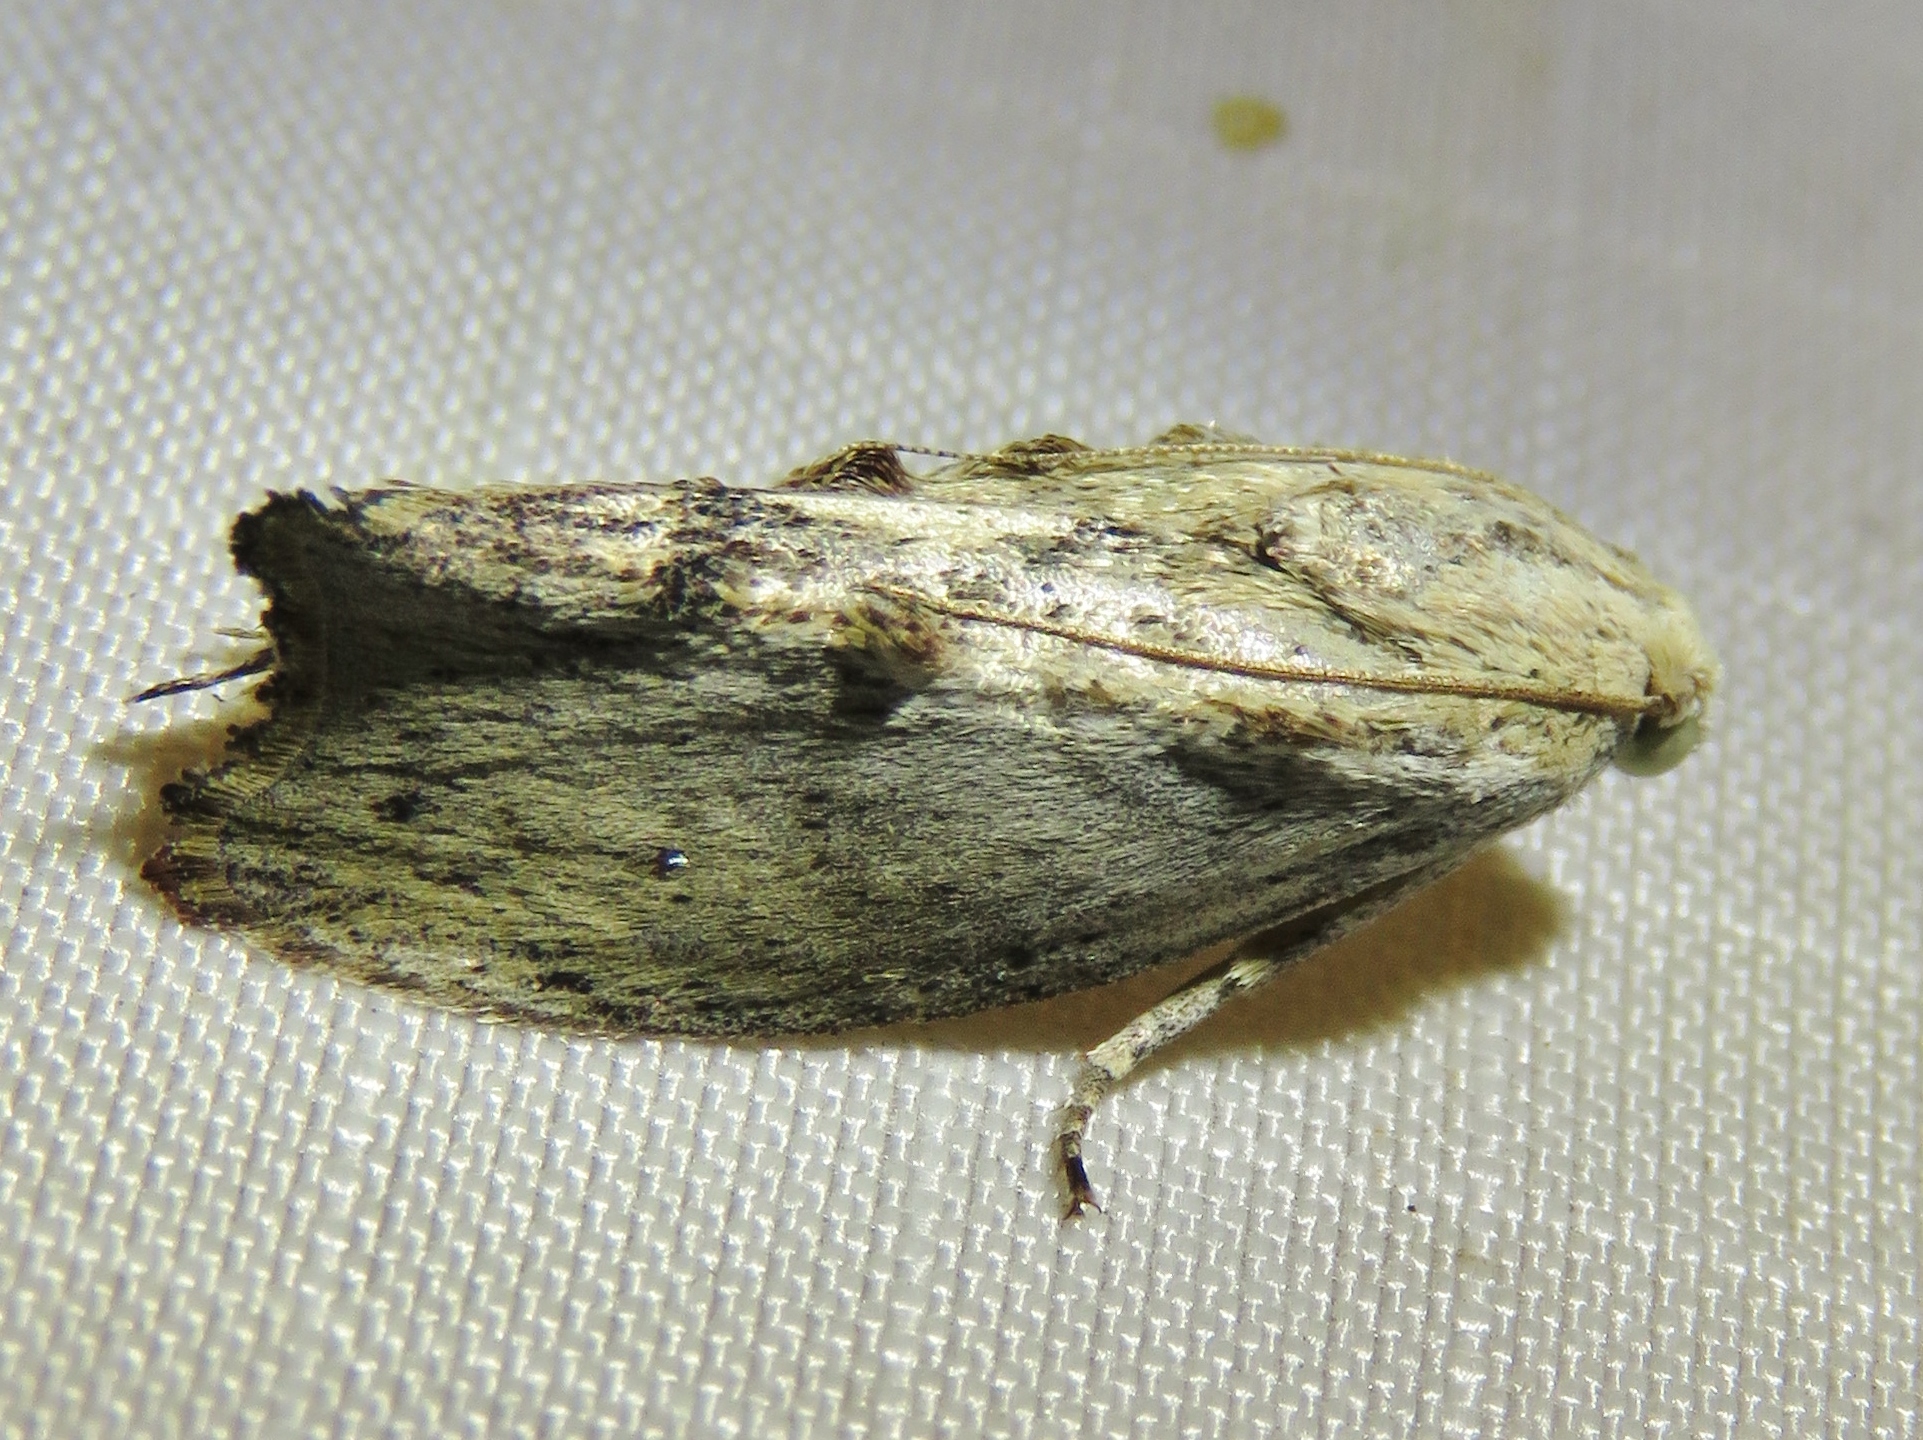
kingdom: Animalia
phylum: Arthropoda
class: Insecta
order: Lepidoptera
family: Pyralidae
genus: Galleria
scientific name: Galleria mellonella
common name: Greater wax moth
